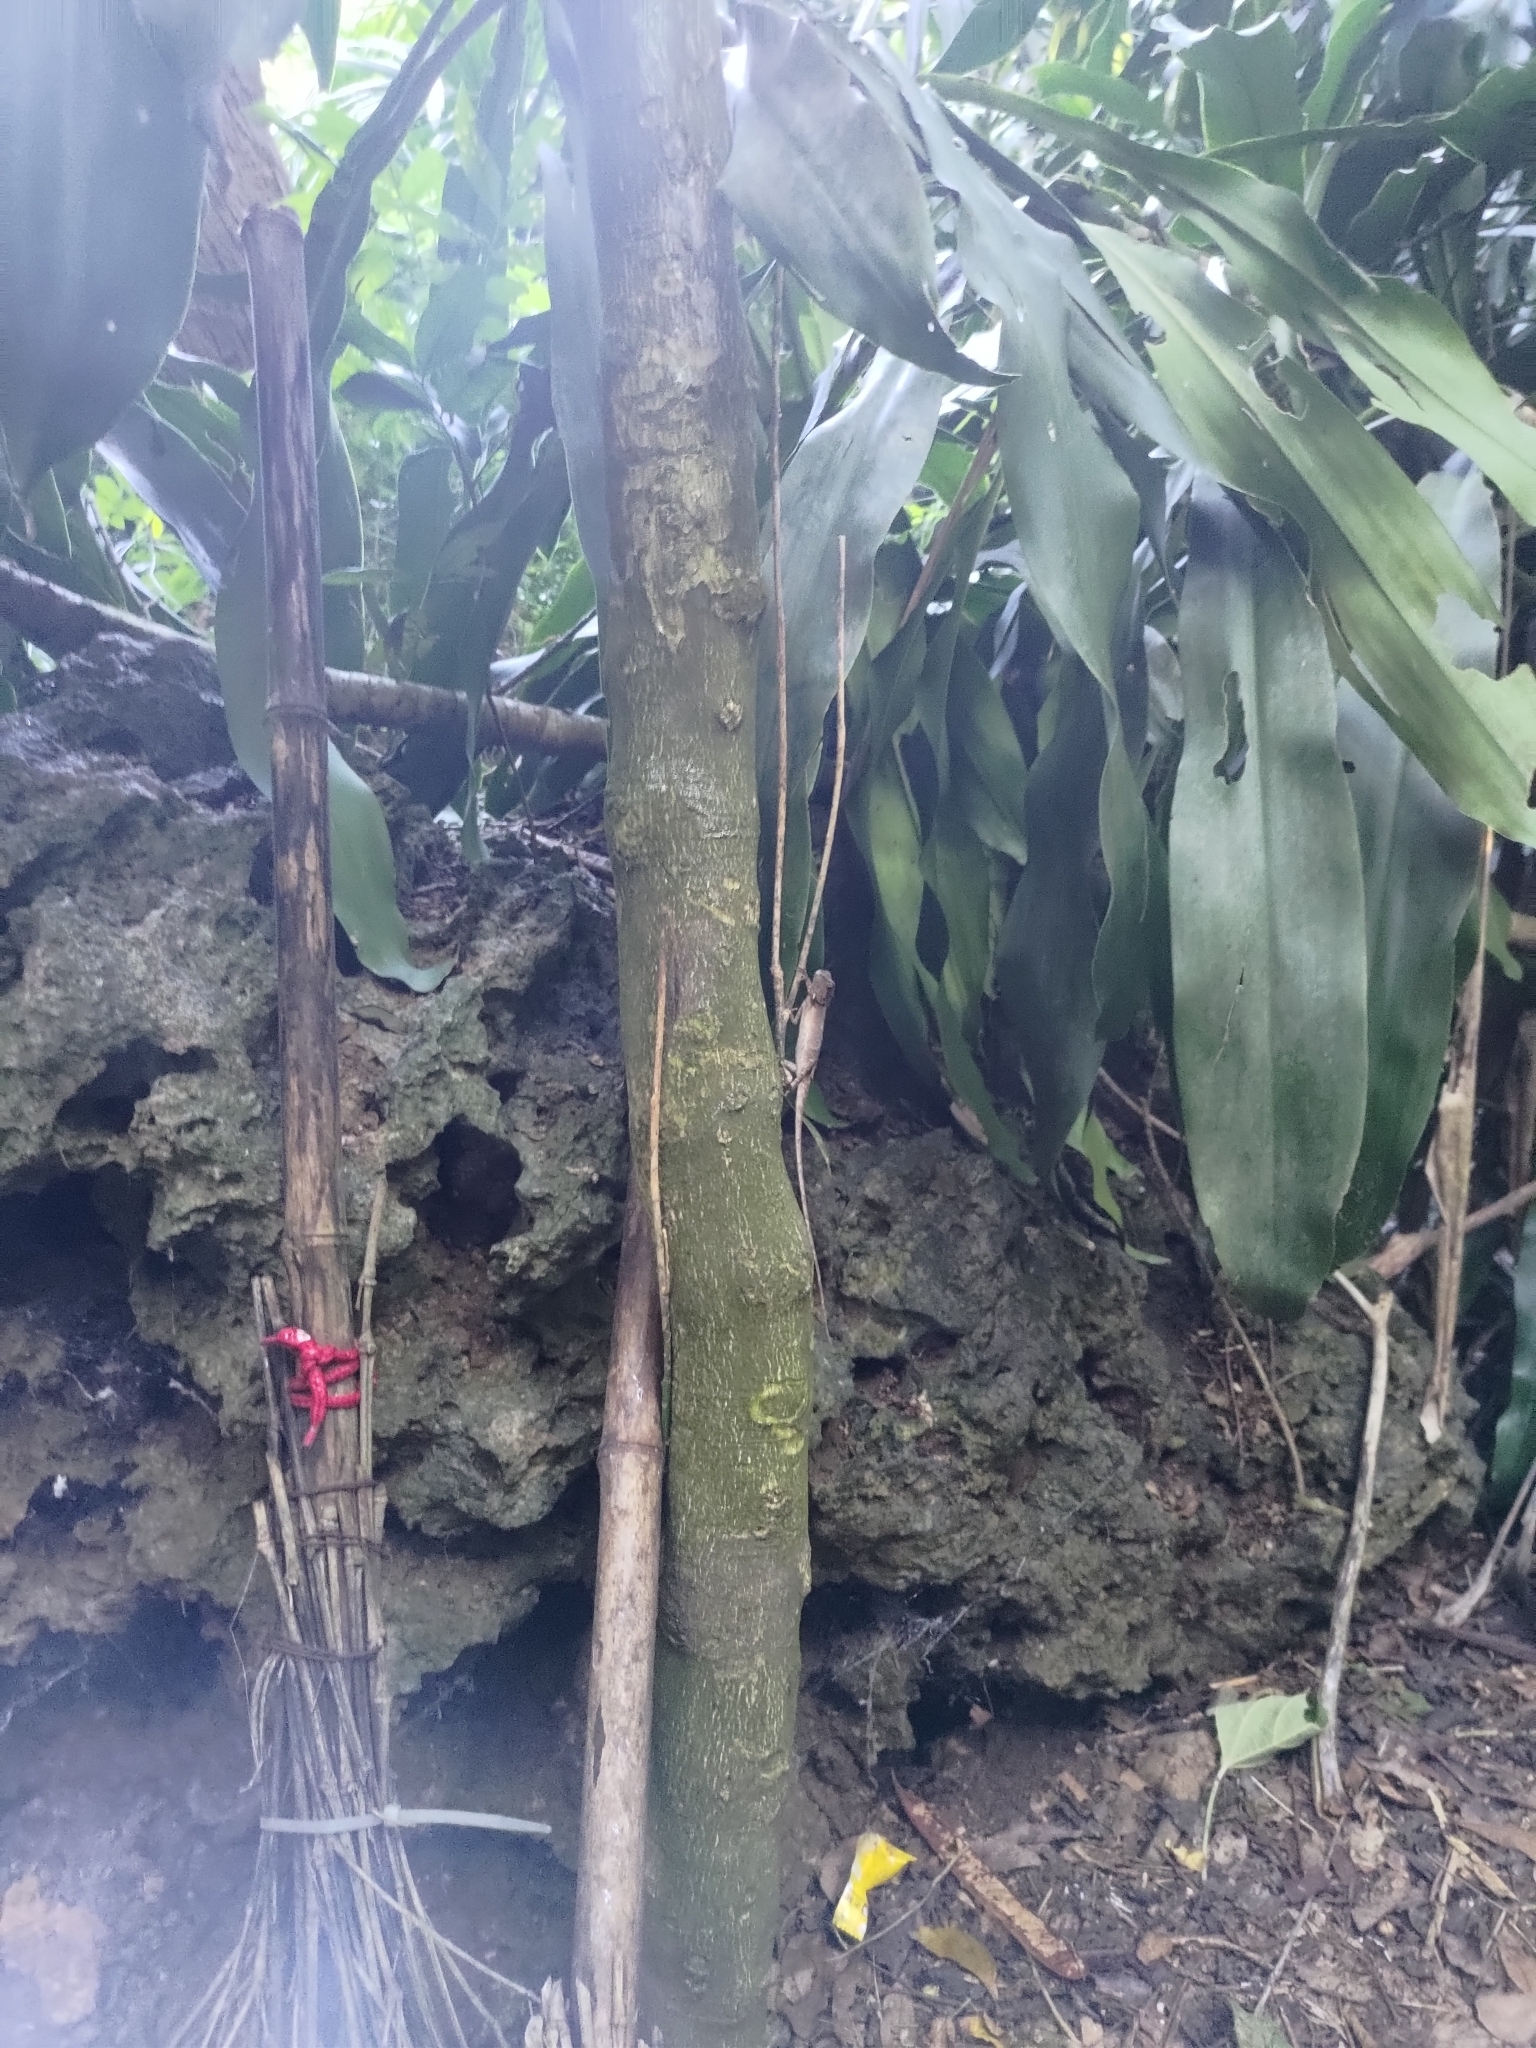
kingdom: Animalia
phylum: Chordata
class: Squamata
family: Agamidae
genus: Diploderma
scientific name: Diploderma swinhonis
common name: Taiwan japalure
